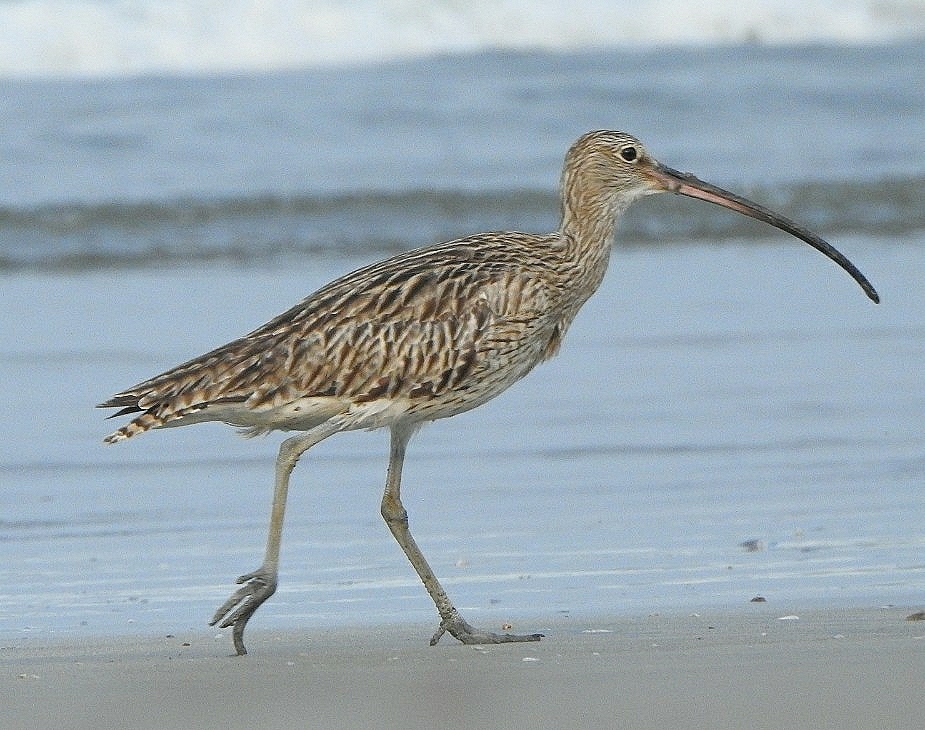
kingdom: Animalia
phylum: Chordata
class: Aves
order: Charadriiformes
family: Scolopacidae
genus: Numenius
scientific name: Numenius arquata
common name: Eurasian curlew
